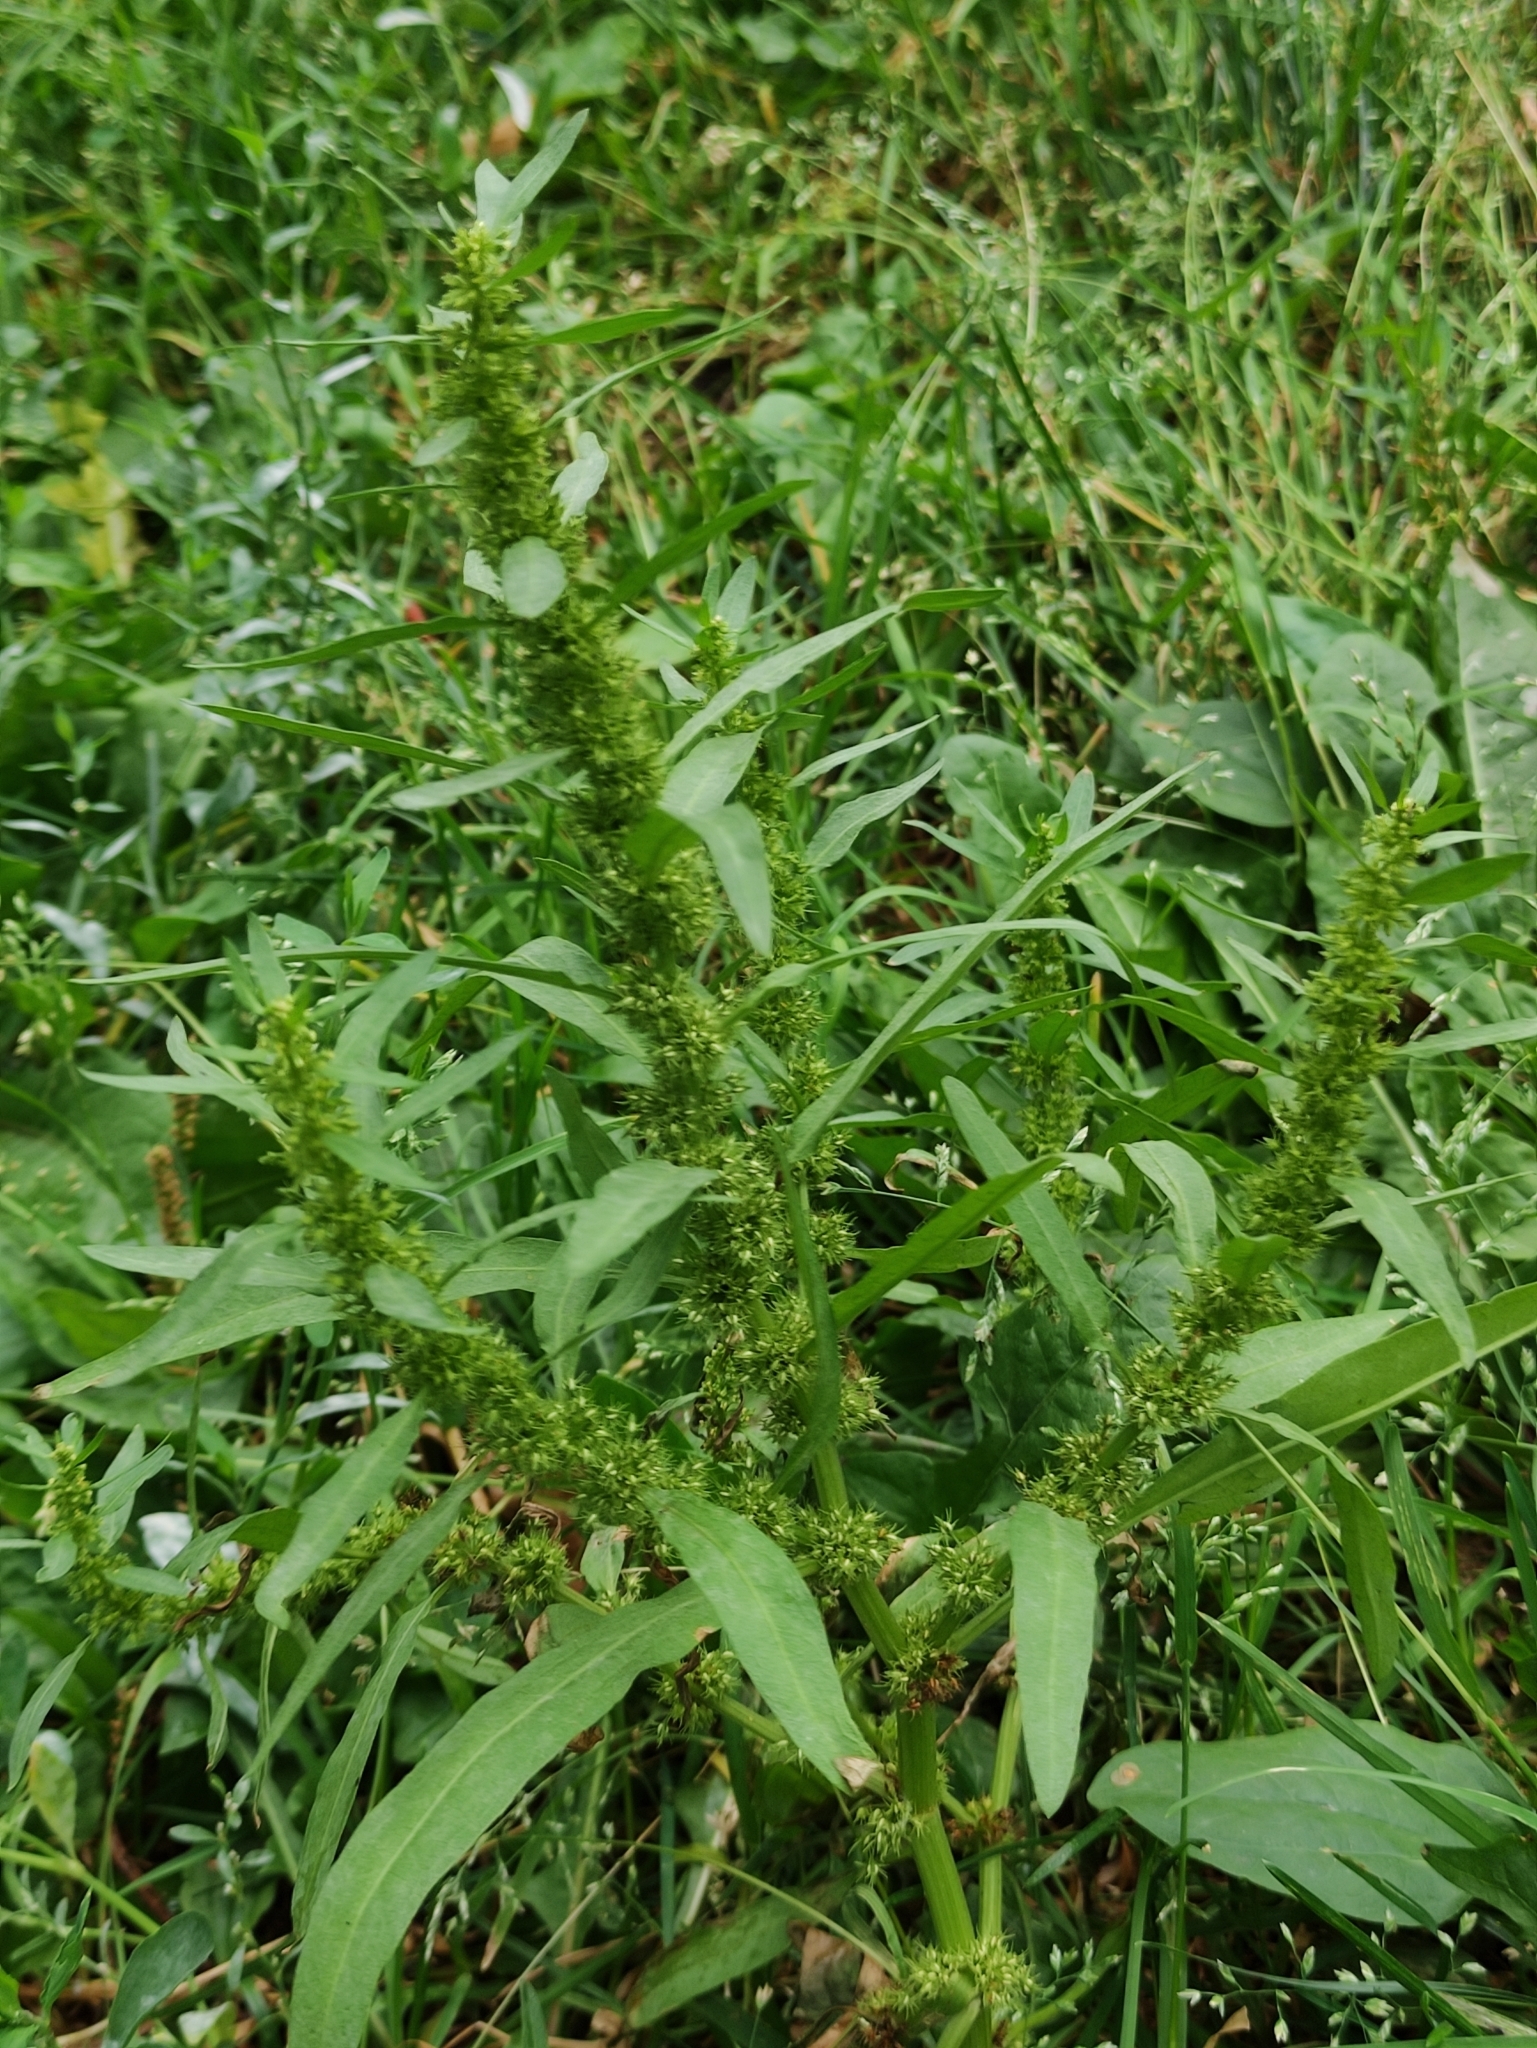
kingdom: Plantae
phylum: Tracheophyta
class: Magnoliopsida
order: Caryophyllales
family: Polygonaceae
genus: Rumex
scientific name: Rumex maritimus
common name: Golden dock
